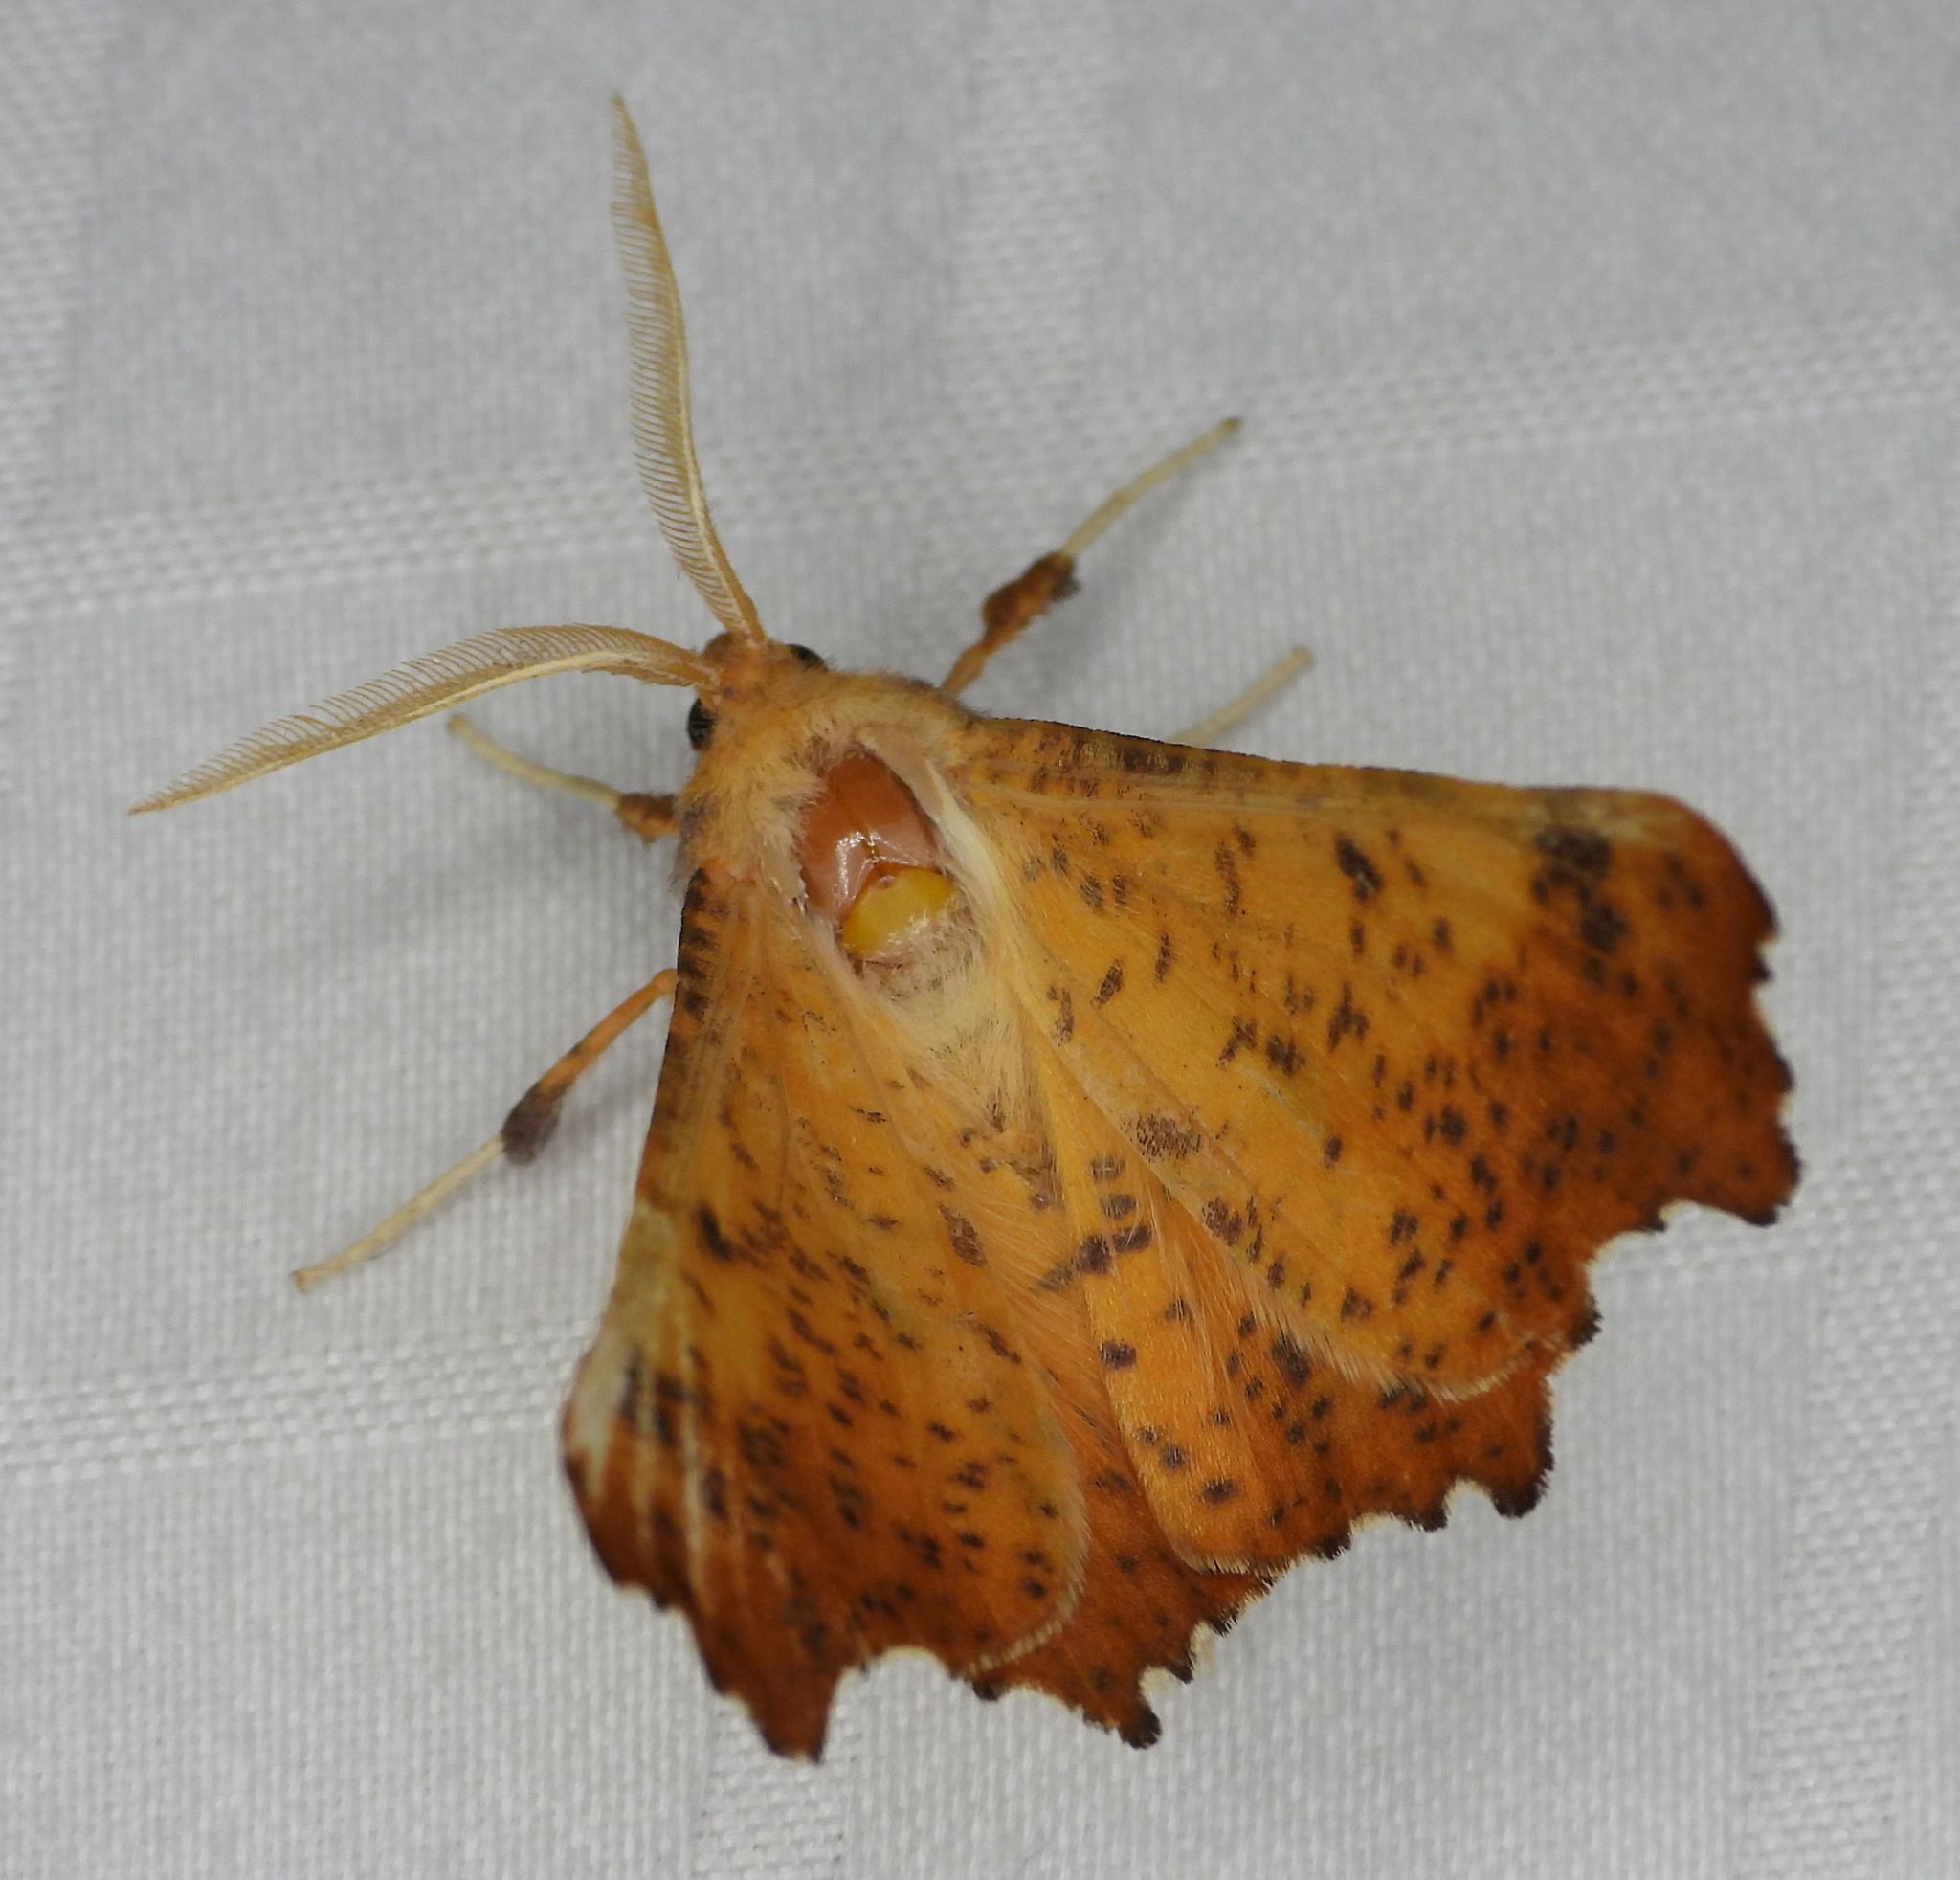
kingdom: Animalia
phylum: Arthropoda
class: Insecta
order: Lepidoptera
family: Geometridae
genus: Ennomos
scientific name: Ennomos magnaria
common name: Maple spanworm
